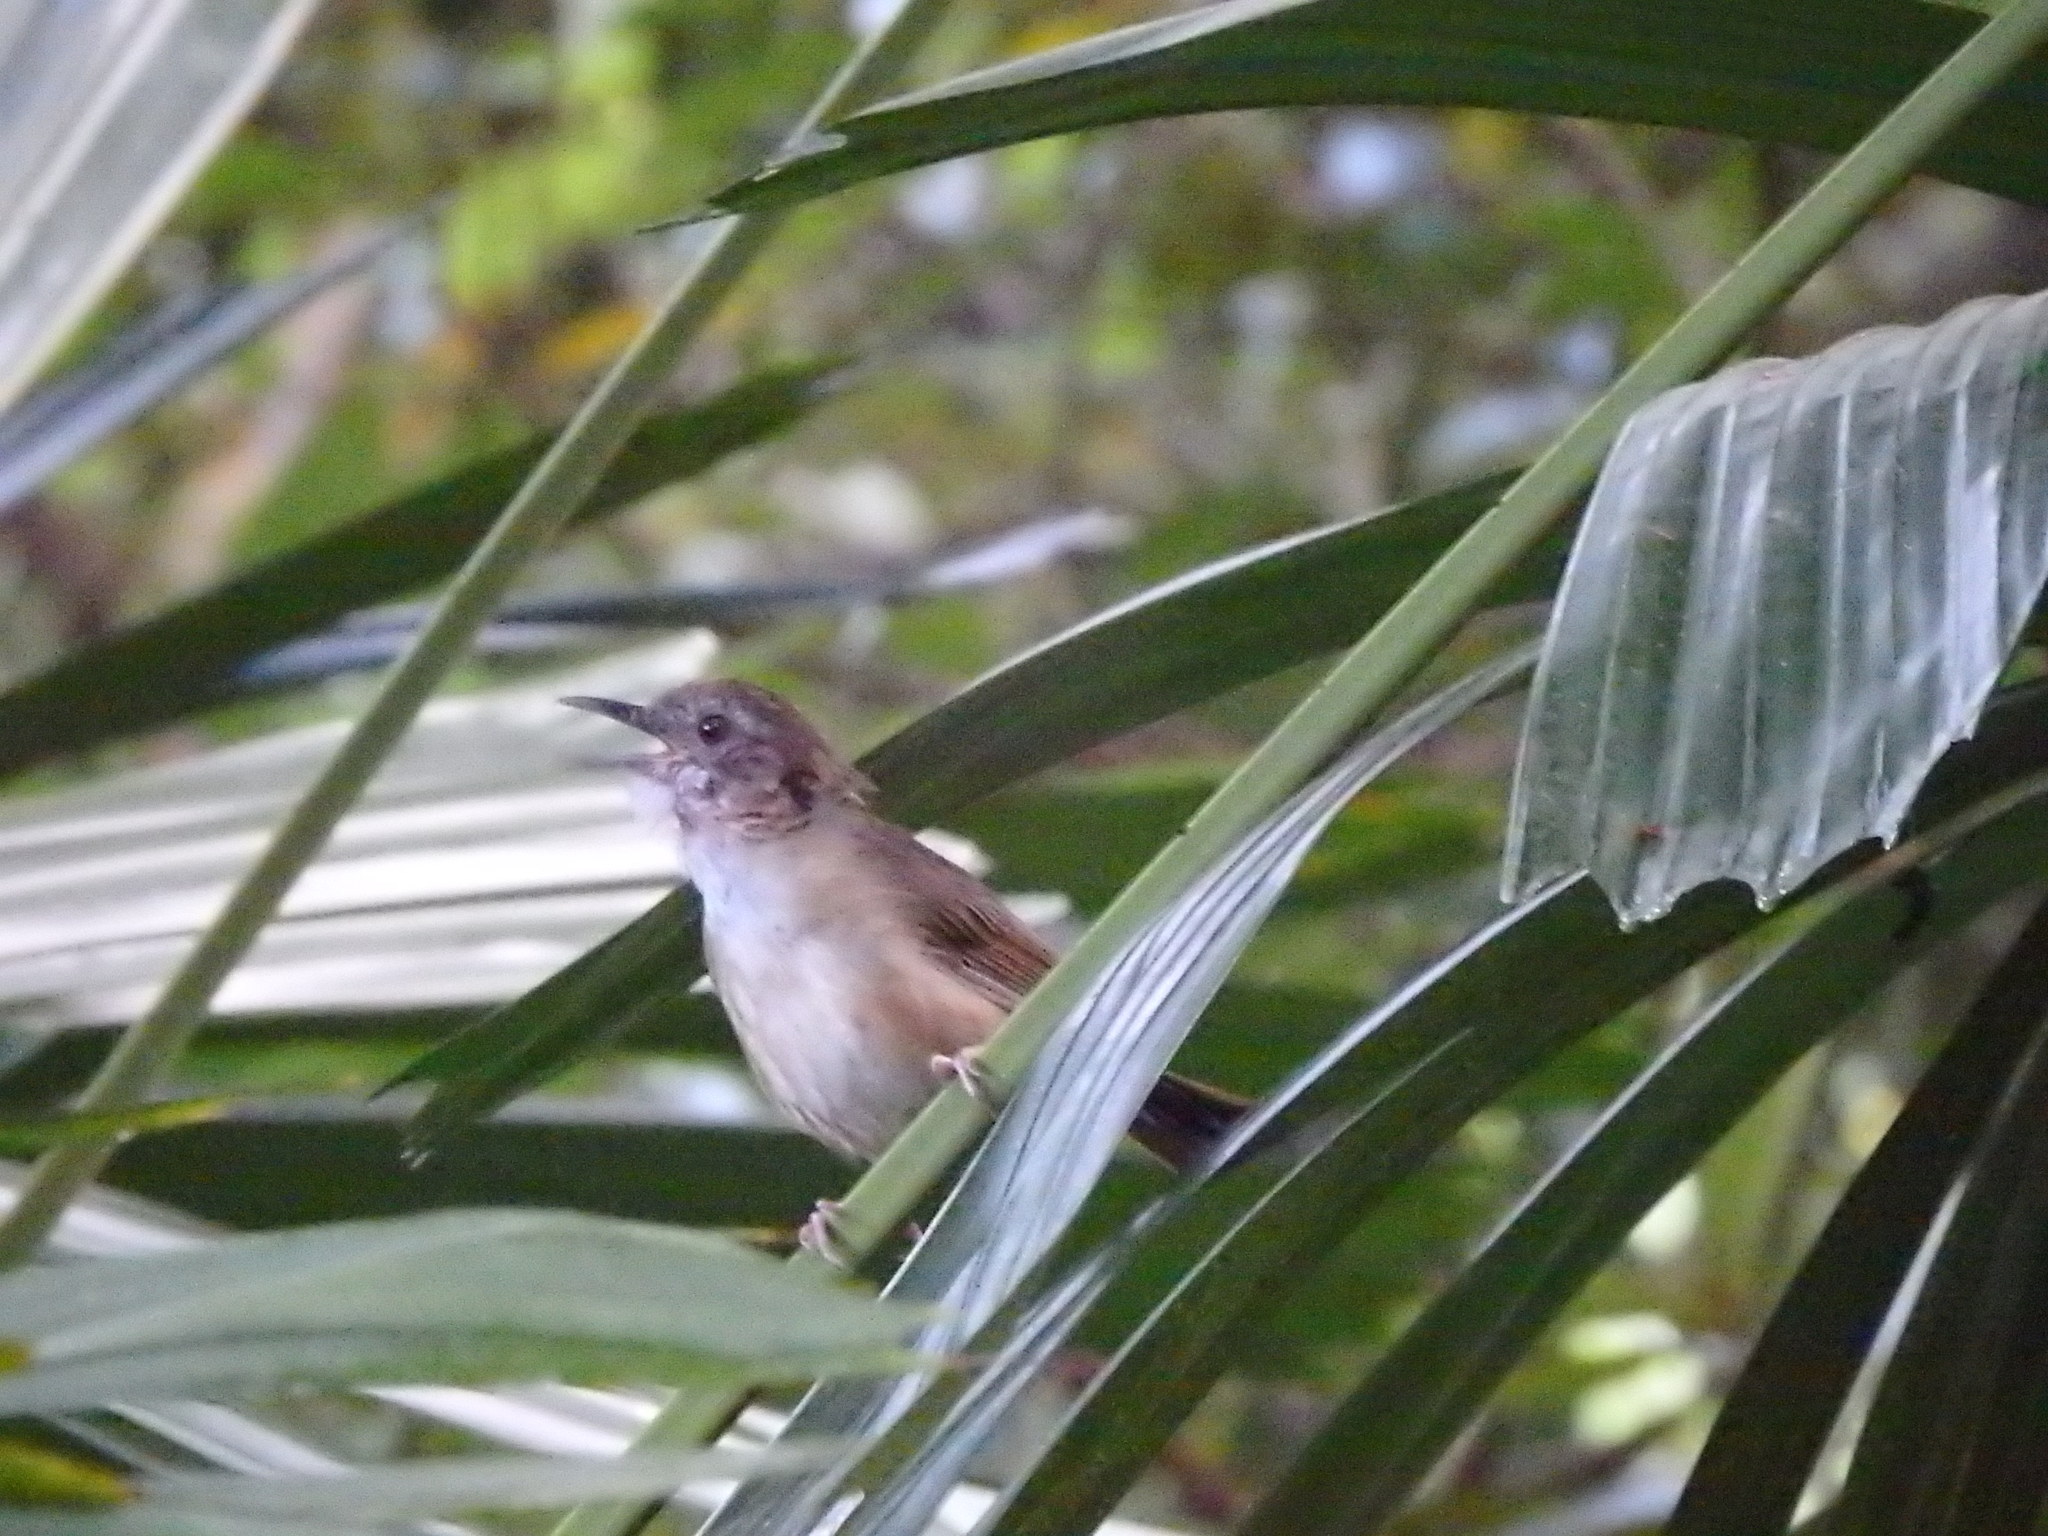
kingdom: Animalia
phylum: Chordata
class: Aves
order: Passeriformes
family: Pellorneidae
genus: Malacocincla
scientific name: Malacocincla abbotti
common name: Abbott's babbler
